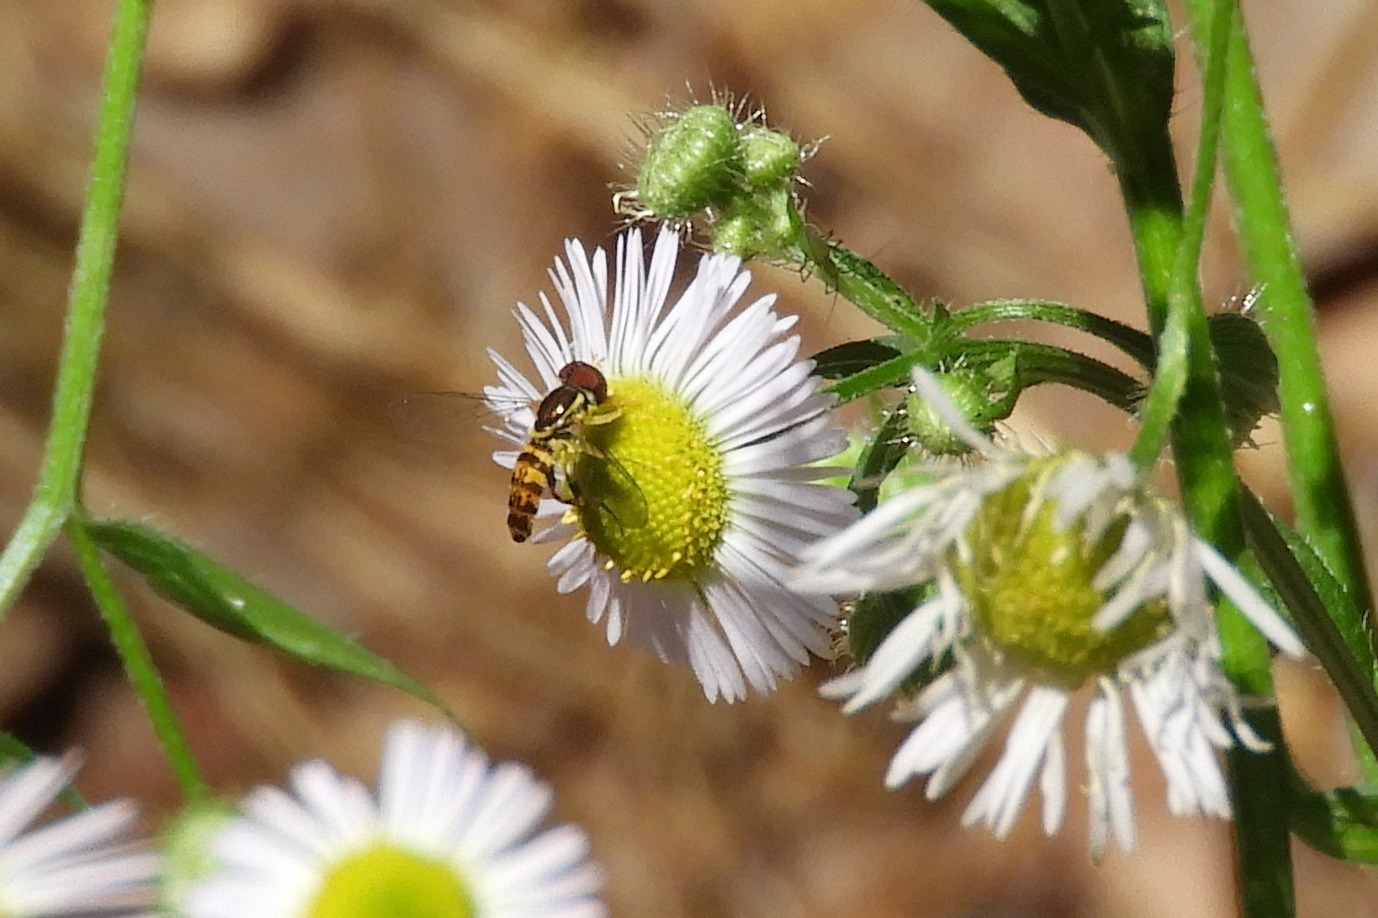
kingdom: Animalia
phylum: Arthropoda
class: Insecta
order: Diptera
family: Syrphidae
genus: Toxomerus
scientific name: Toxomerus geminatus
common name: Eastern calligrapher
